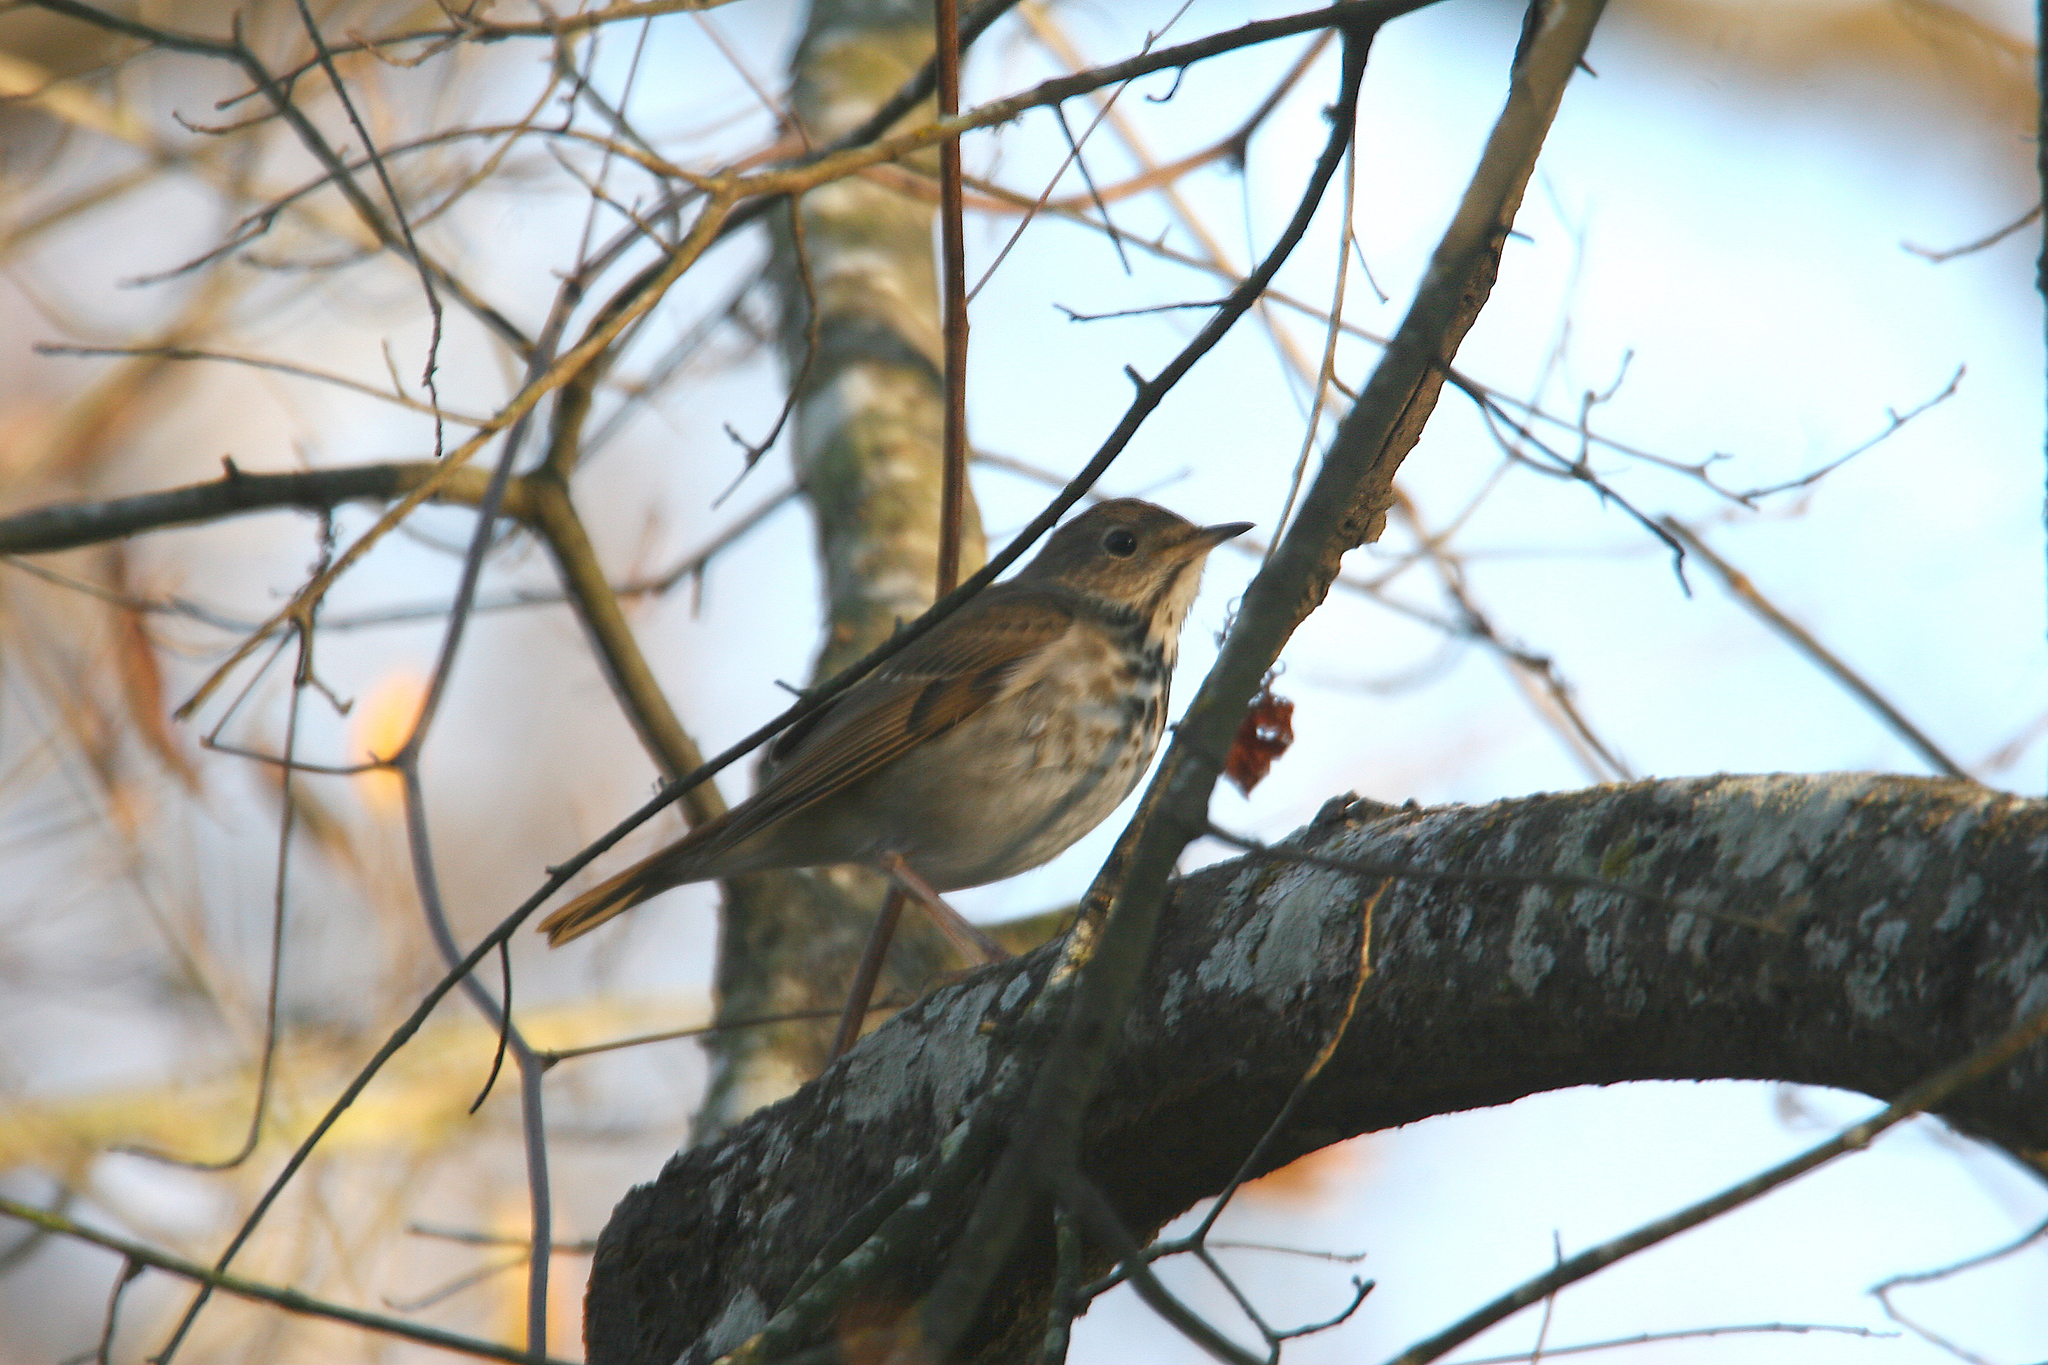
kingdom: Animalia
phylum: Chordata
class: Aves
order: Passeriformes
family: Turdidae
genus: Catharus
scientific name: Catharus guttatus
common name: Hermit thrush
